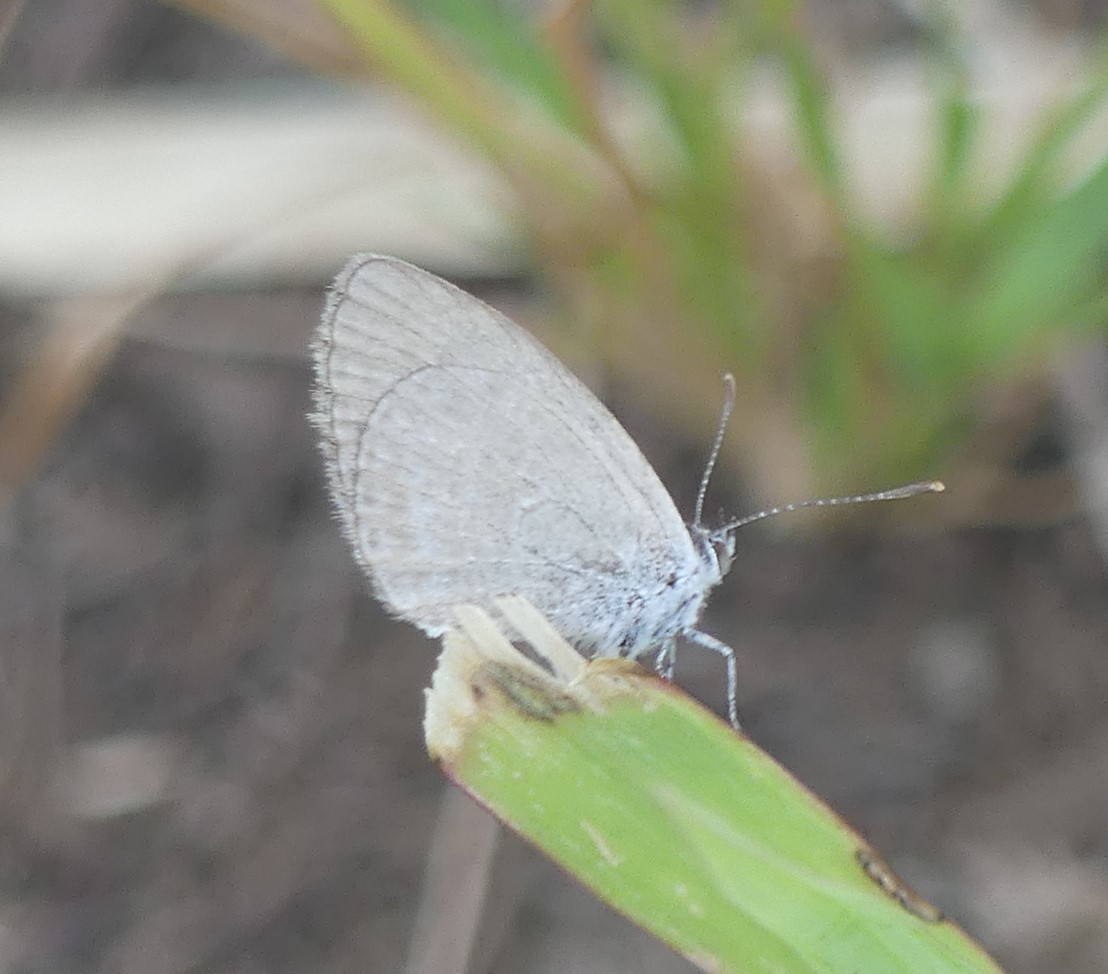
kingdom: Animalia
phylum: Arthropoda
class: Insecta
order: Lepidoptera
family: Lycaenidae
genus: Zizina
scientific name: Zizina labradus
